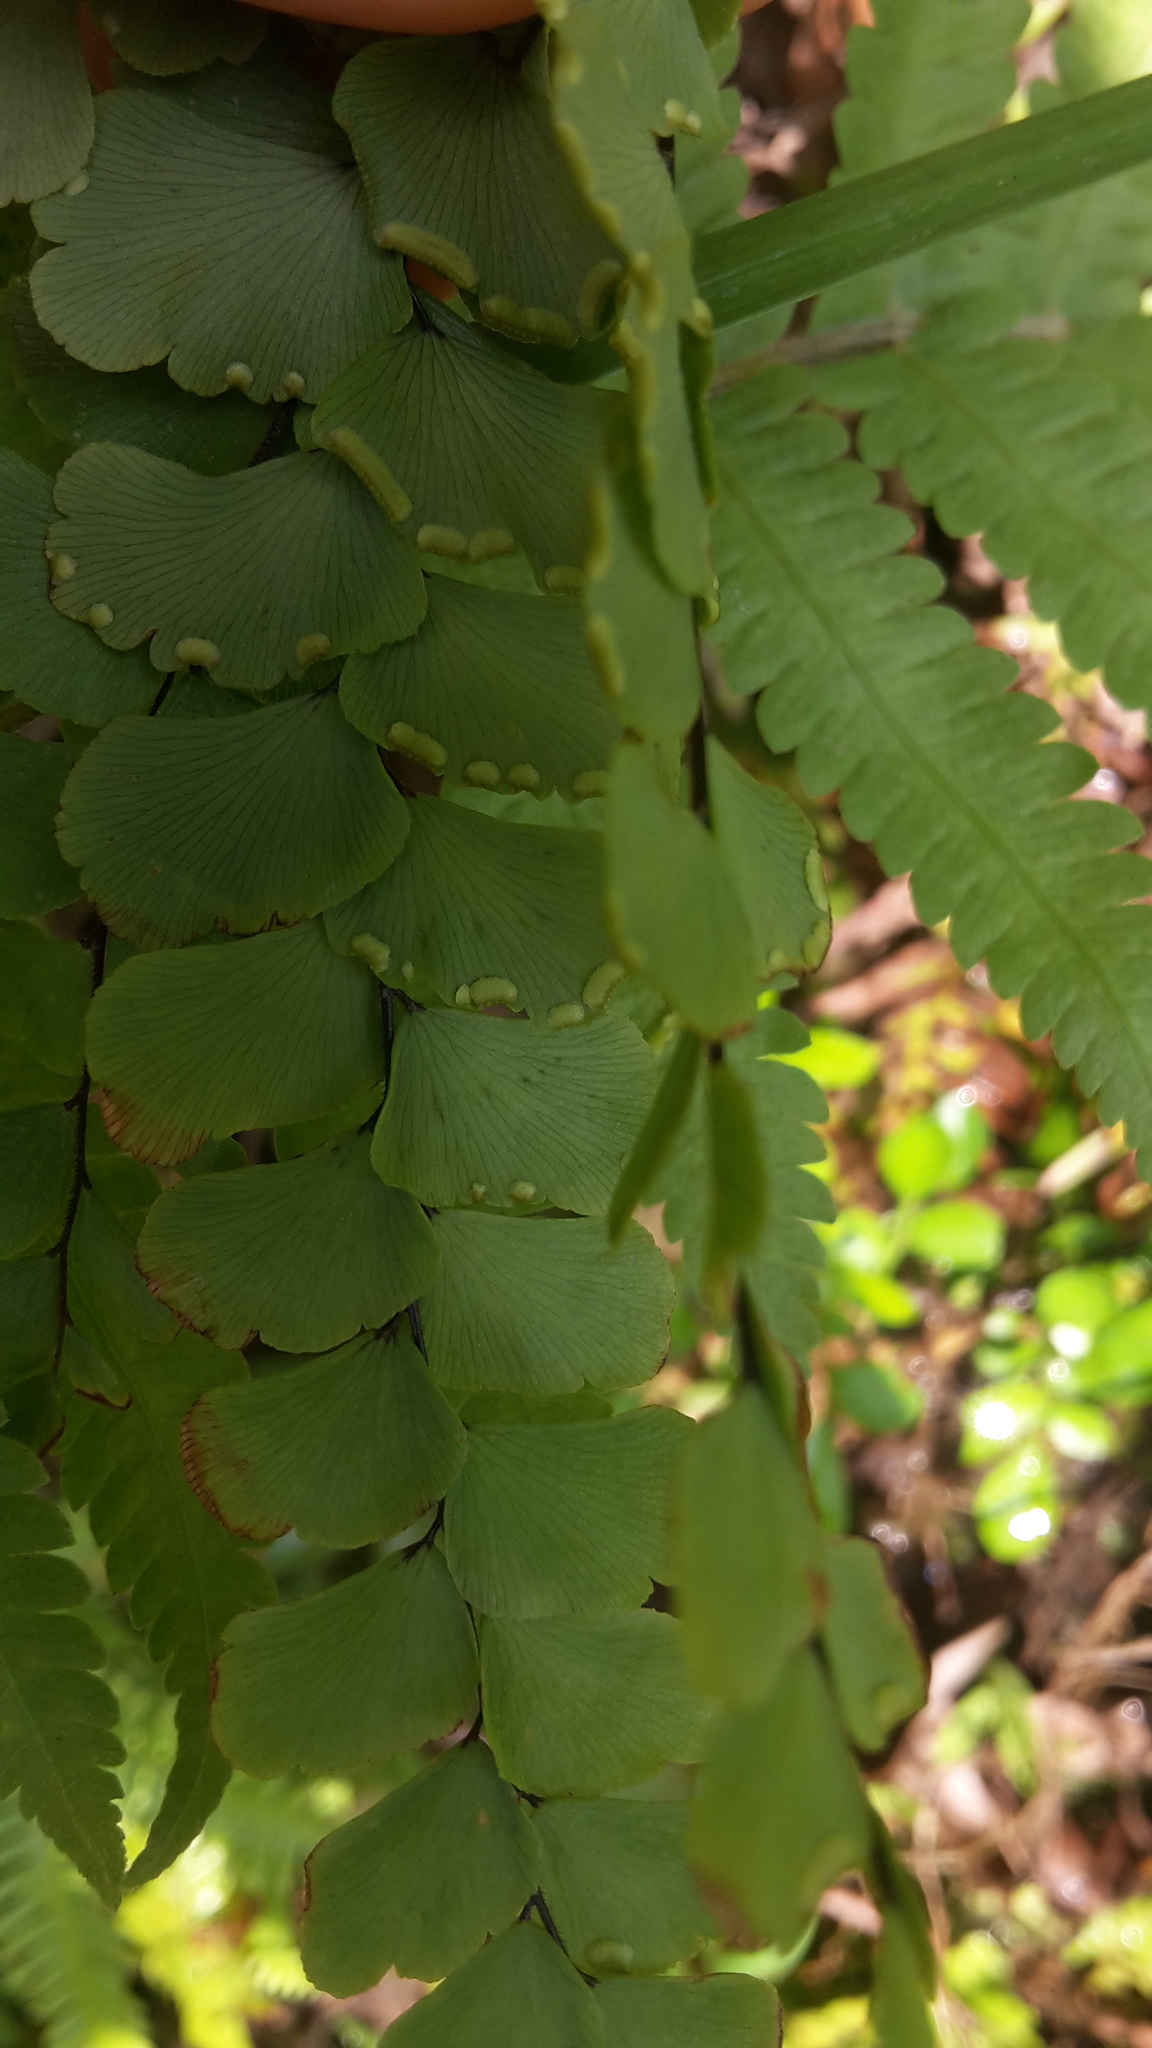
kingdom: Plantae
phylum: Tracheophyta
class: Polypodiopsida
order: Polypodiales
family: Pteridaceae
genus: Adiantum
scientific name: Adiantum flabellulatum
